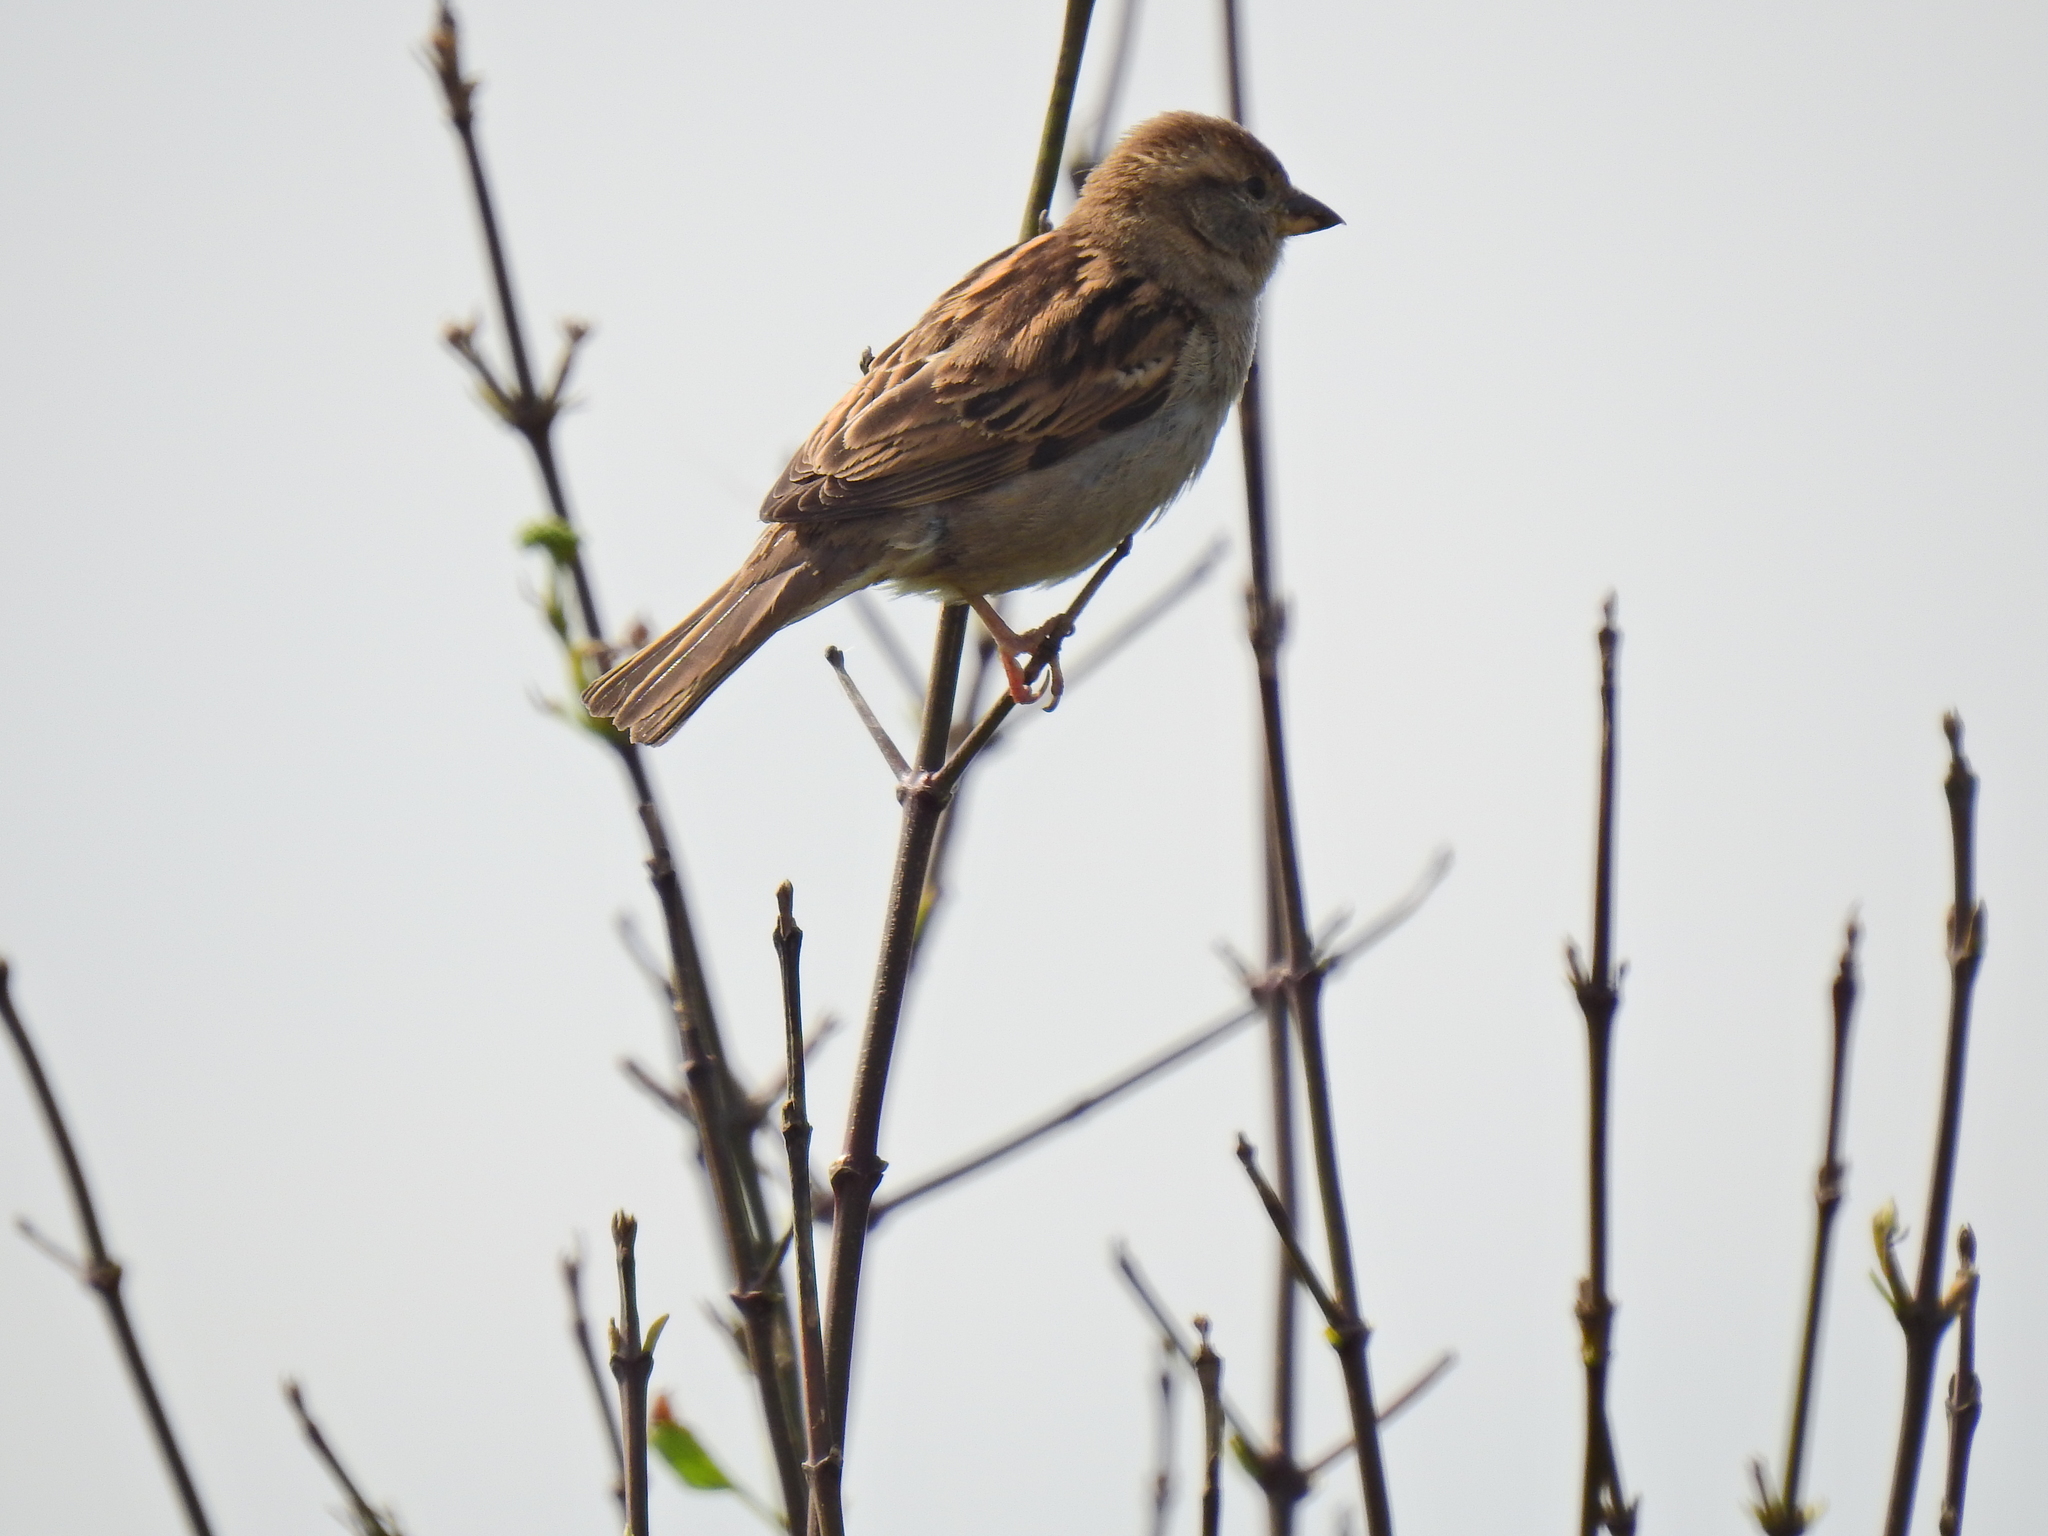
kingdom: Animalia
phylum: Chordata
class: Aves
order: Passeriformes
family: Passeridae
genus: Passer
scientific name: Passer domesticus
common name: House sparrow
